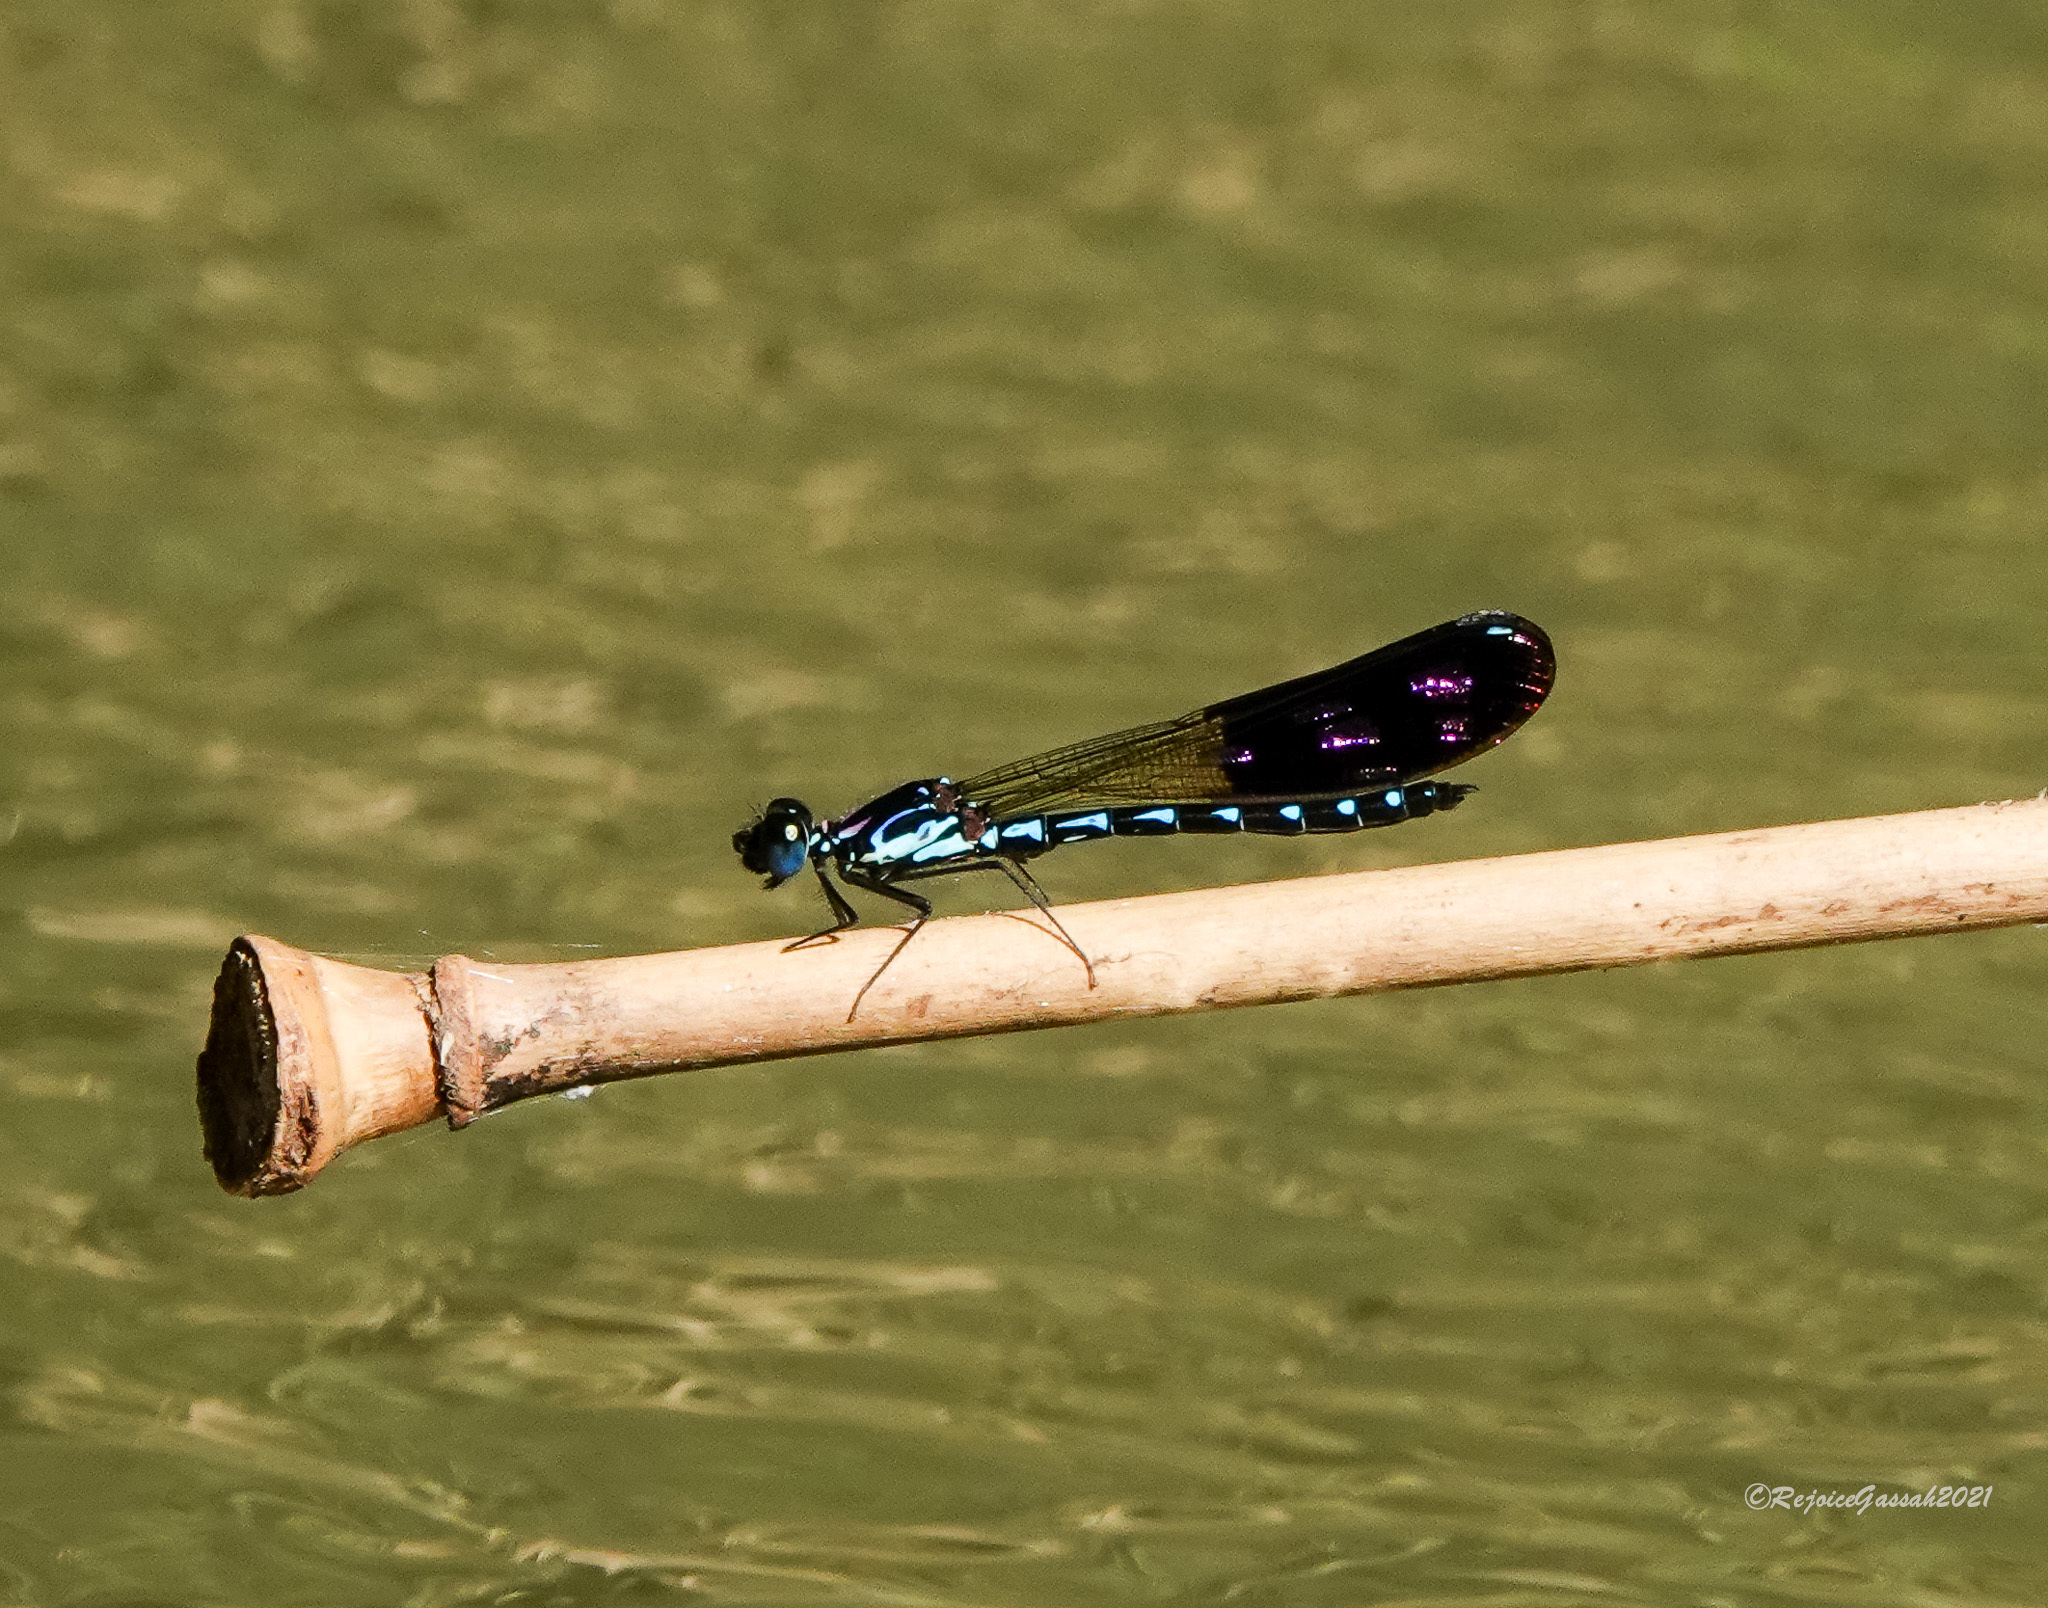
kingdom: Animalia
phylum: Arthropoda
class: Insecta
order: Odonata
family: Chlorocyphidae
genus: Heliocypha
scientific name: Heliocypha perforata
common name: Common blue jewel
